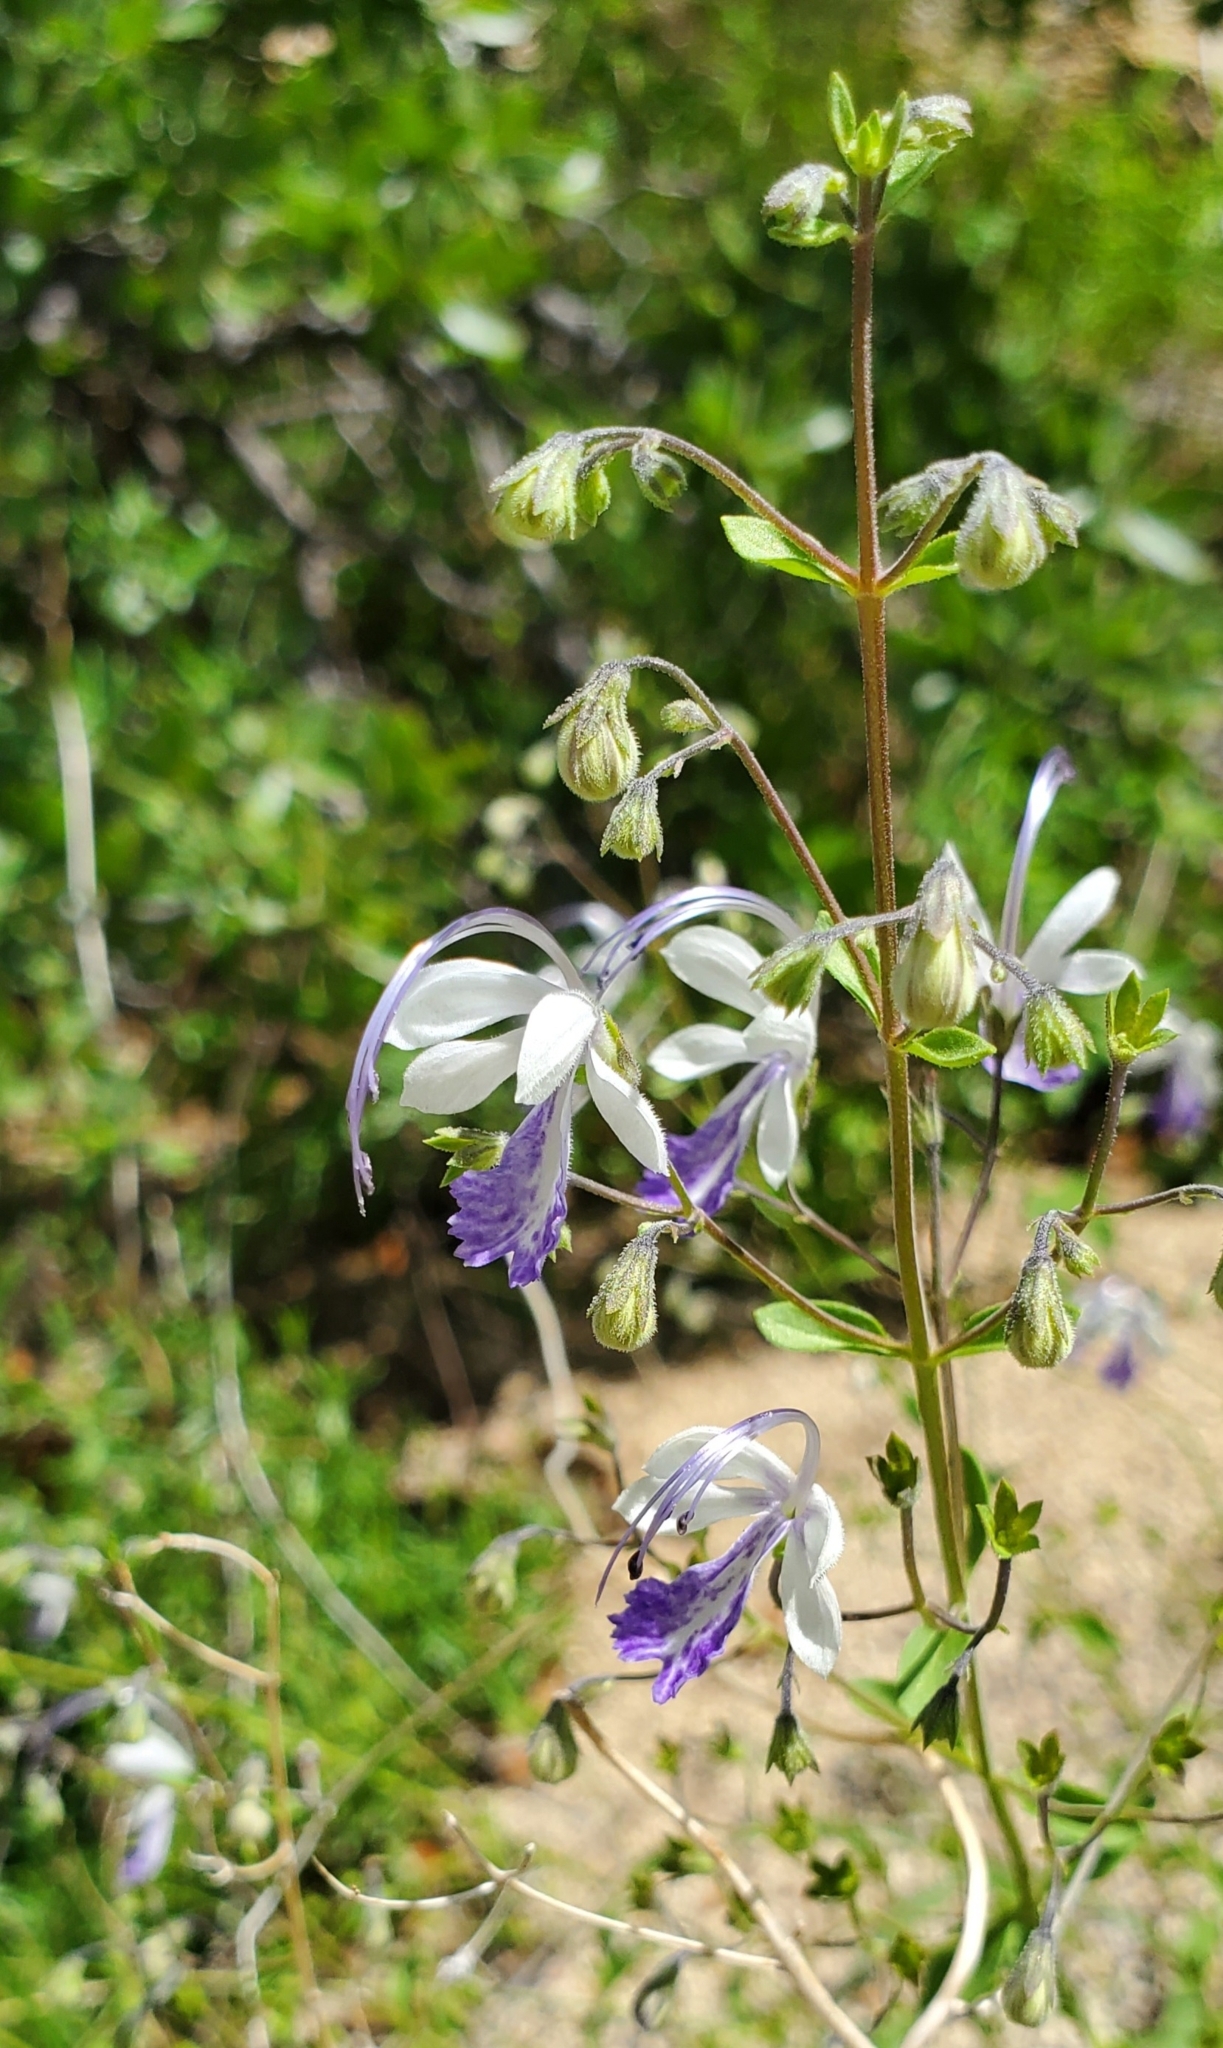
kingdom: Plantae
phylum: Tracheophyta
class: Magnoliopsida
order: Lamiales
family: Lamiaceae
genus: Trichostema
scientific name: Trichostema arizonicum
